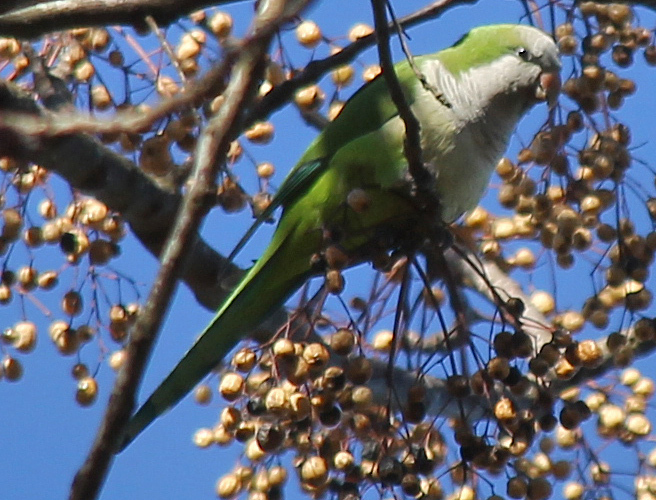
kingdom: Animalia
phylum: Chordata
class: Aves
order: Psittaciformes
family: Psittacidae
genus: Myiopsitta
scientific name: Myiopsitta monachus
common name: Monk parakeet
